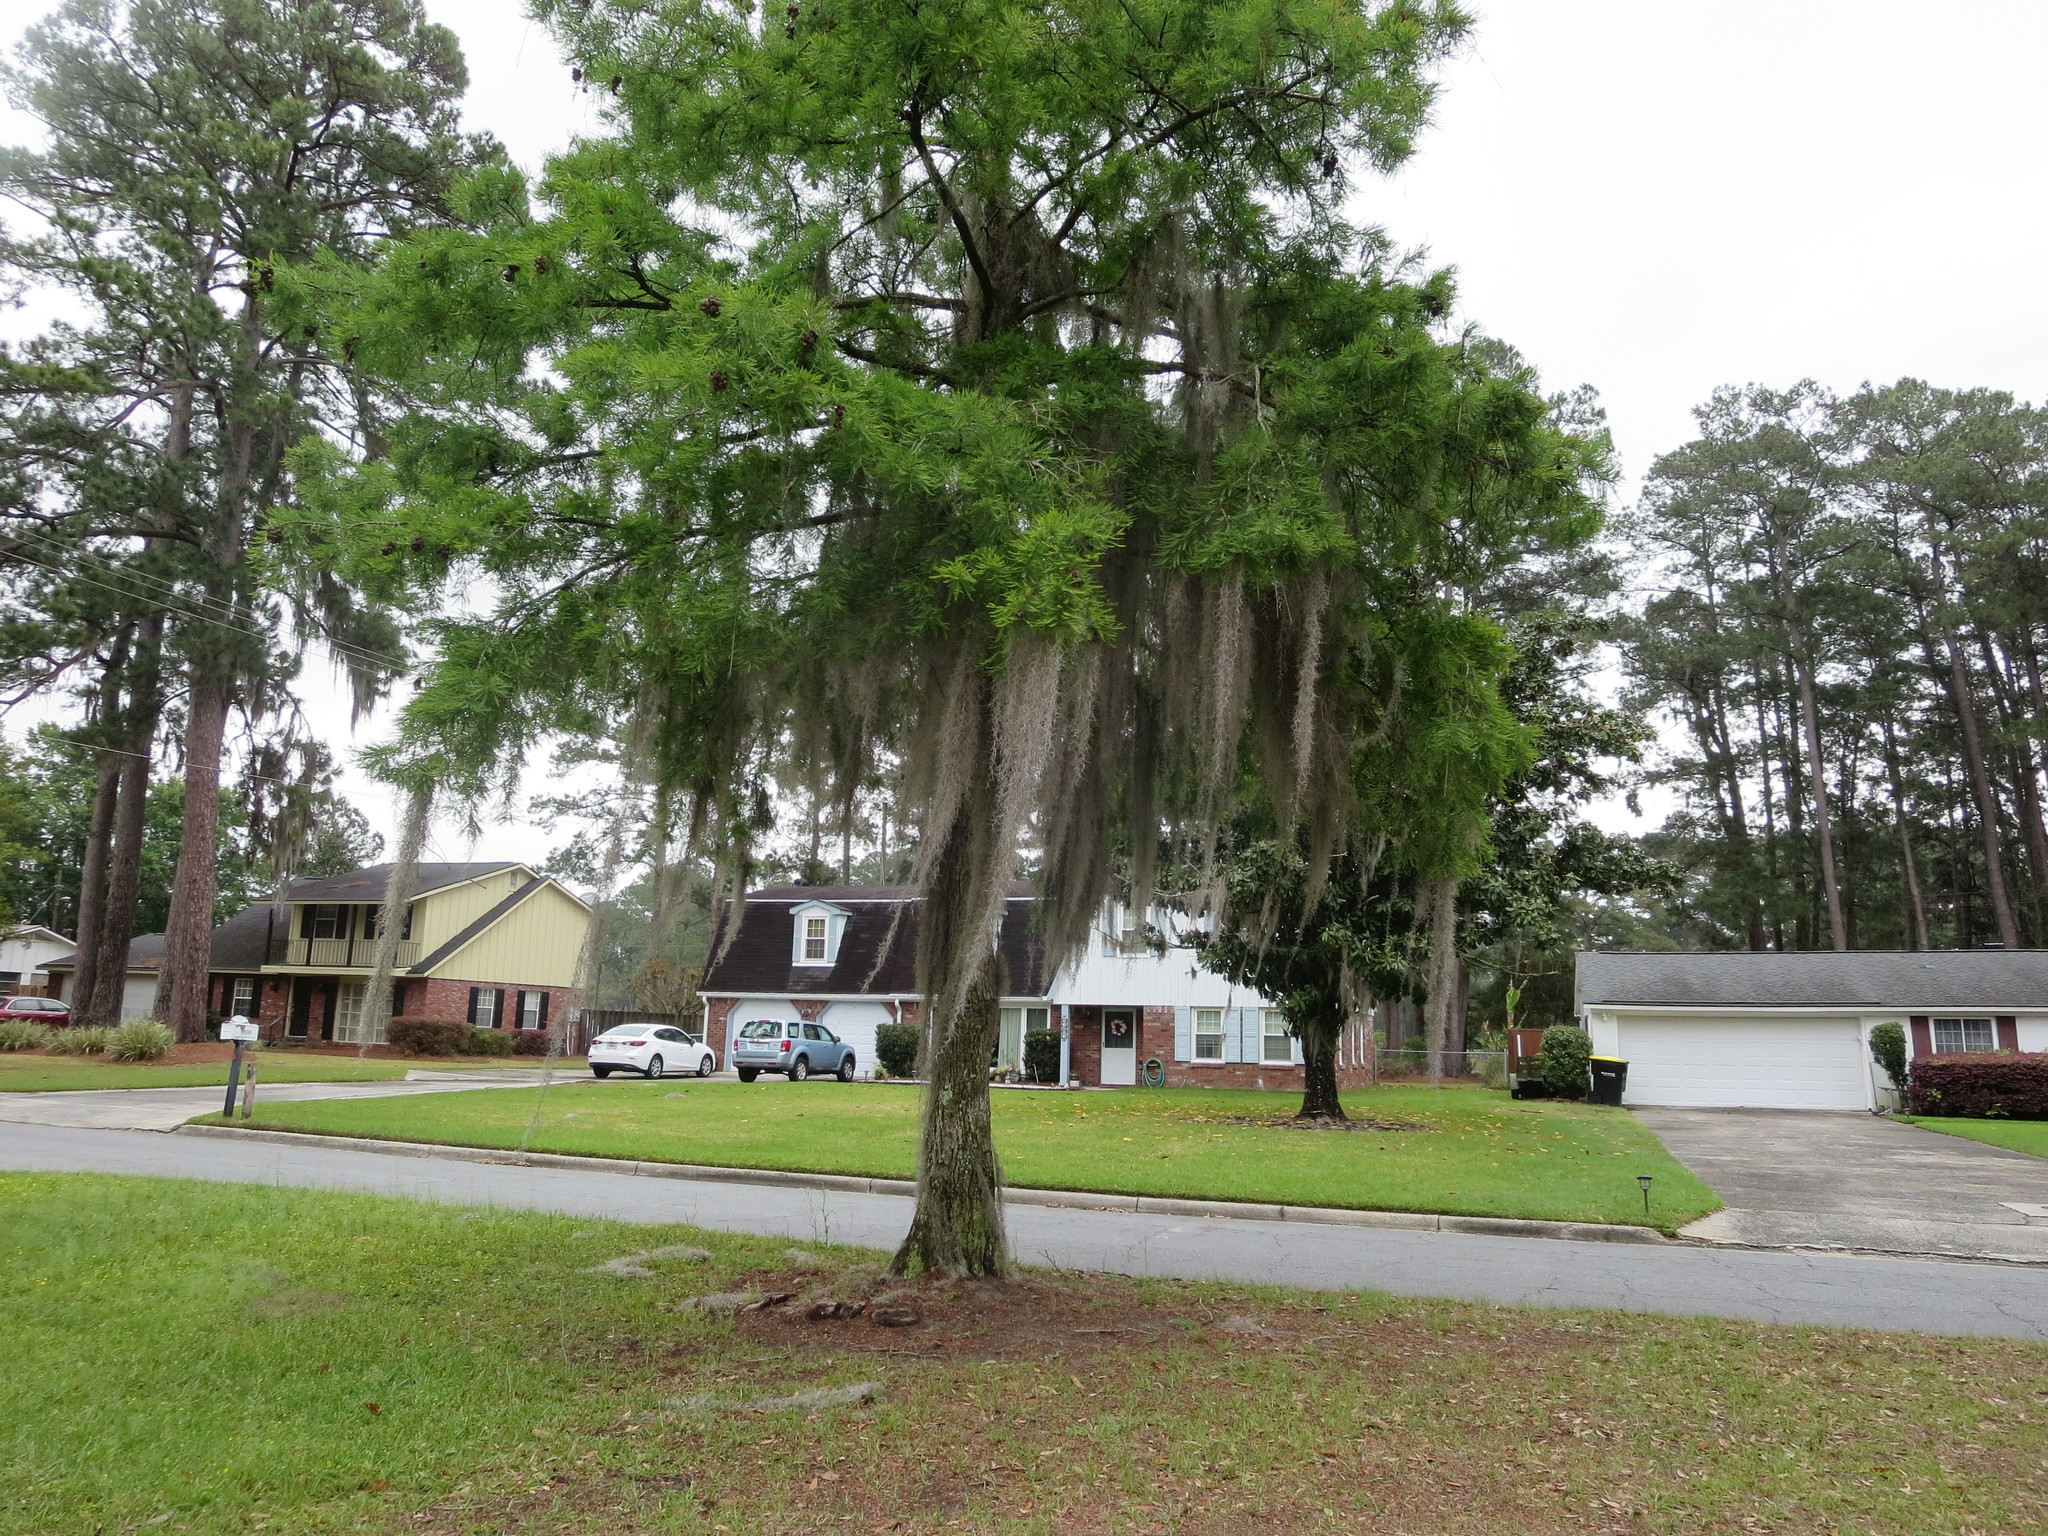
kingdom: Plantae
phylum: Tracheophyta
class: Liliopsida
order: Poales
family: Bromeliaceae
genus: Tillandsia
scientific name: Tillandsia usneoides
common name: Spanish moss
